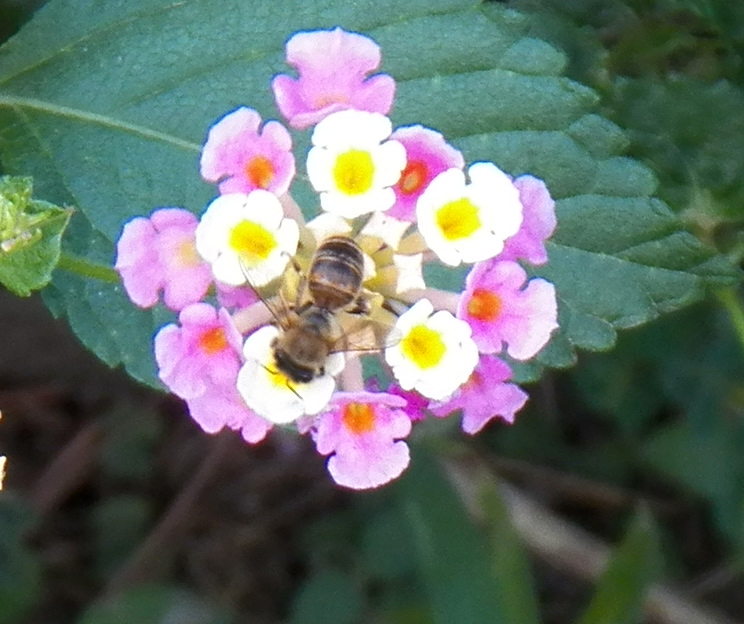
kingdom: Animalia
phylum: Arthropoda
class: Insecta
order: Hymenoptera
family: Apidae
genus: Apis
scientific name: Apis mellifera
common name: Honey bee
